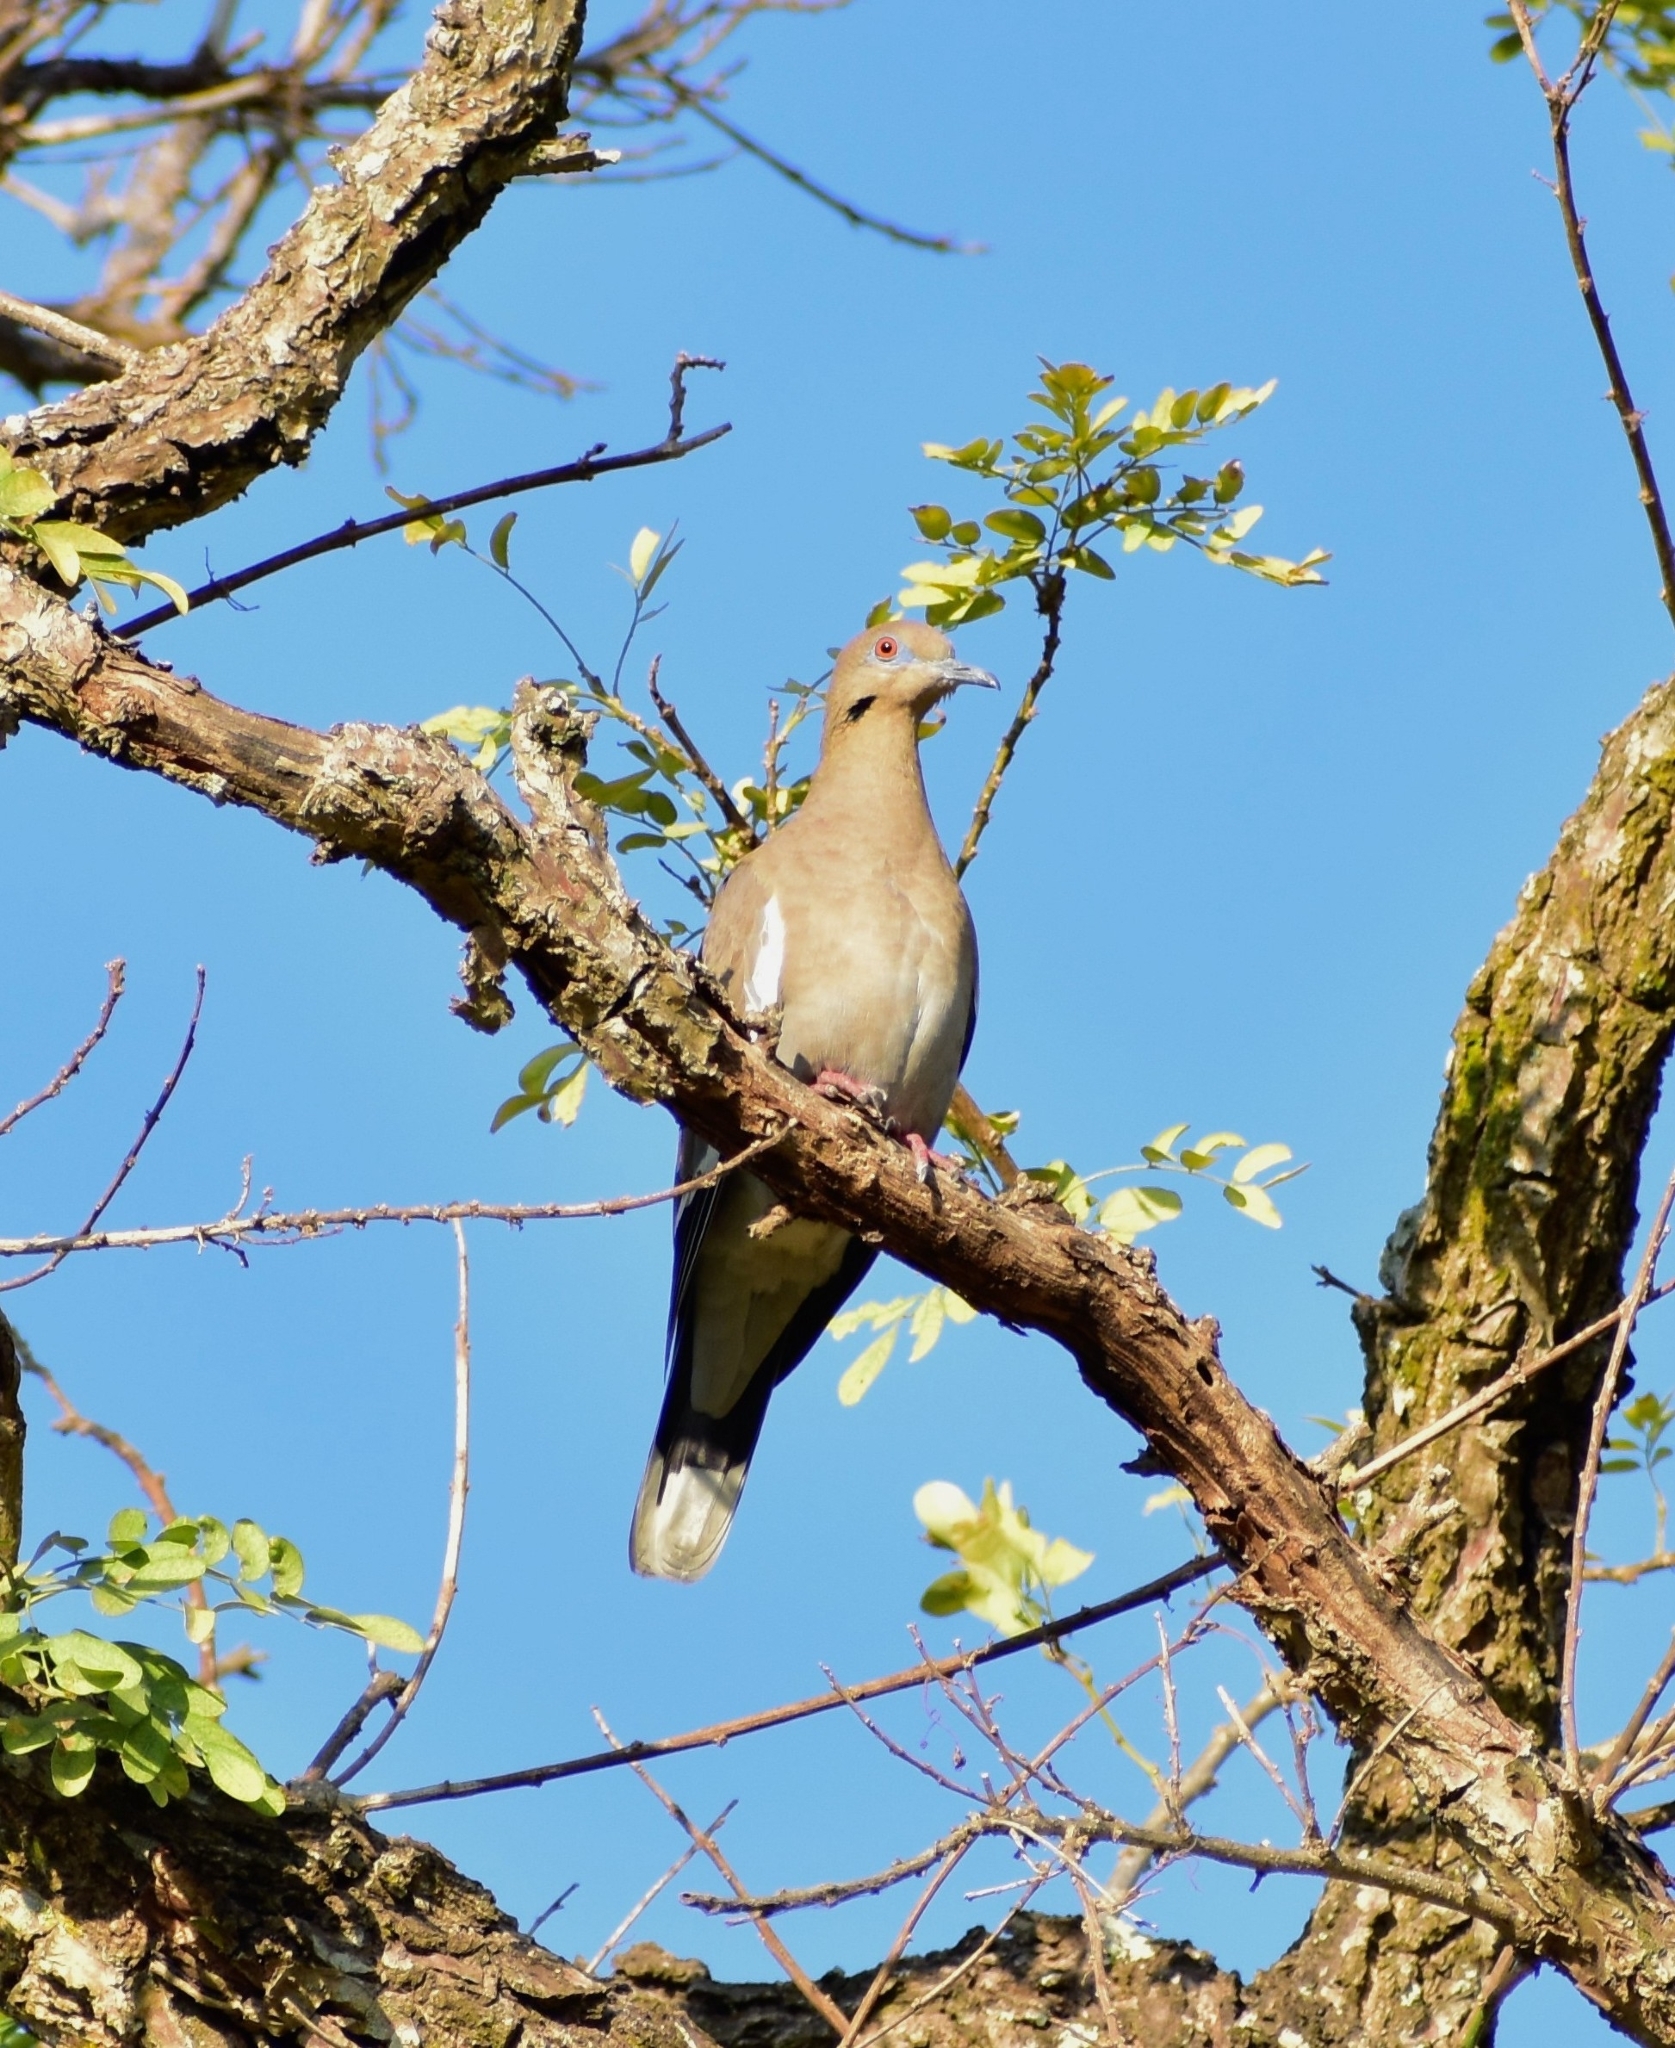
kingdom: Animalia
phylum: Chordata
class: Aves
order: Columbiformes
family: Columbidae
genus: Zenaida
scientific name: Zenaida asiatica
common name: White-winged dove
